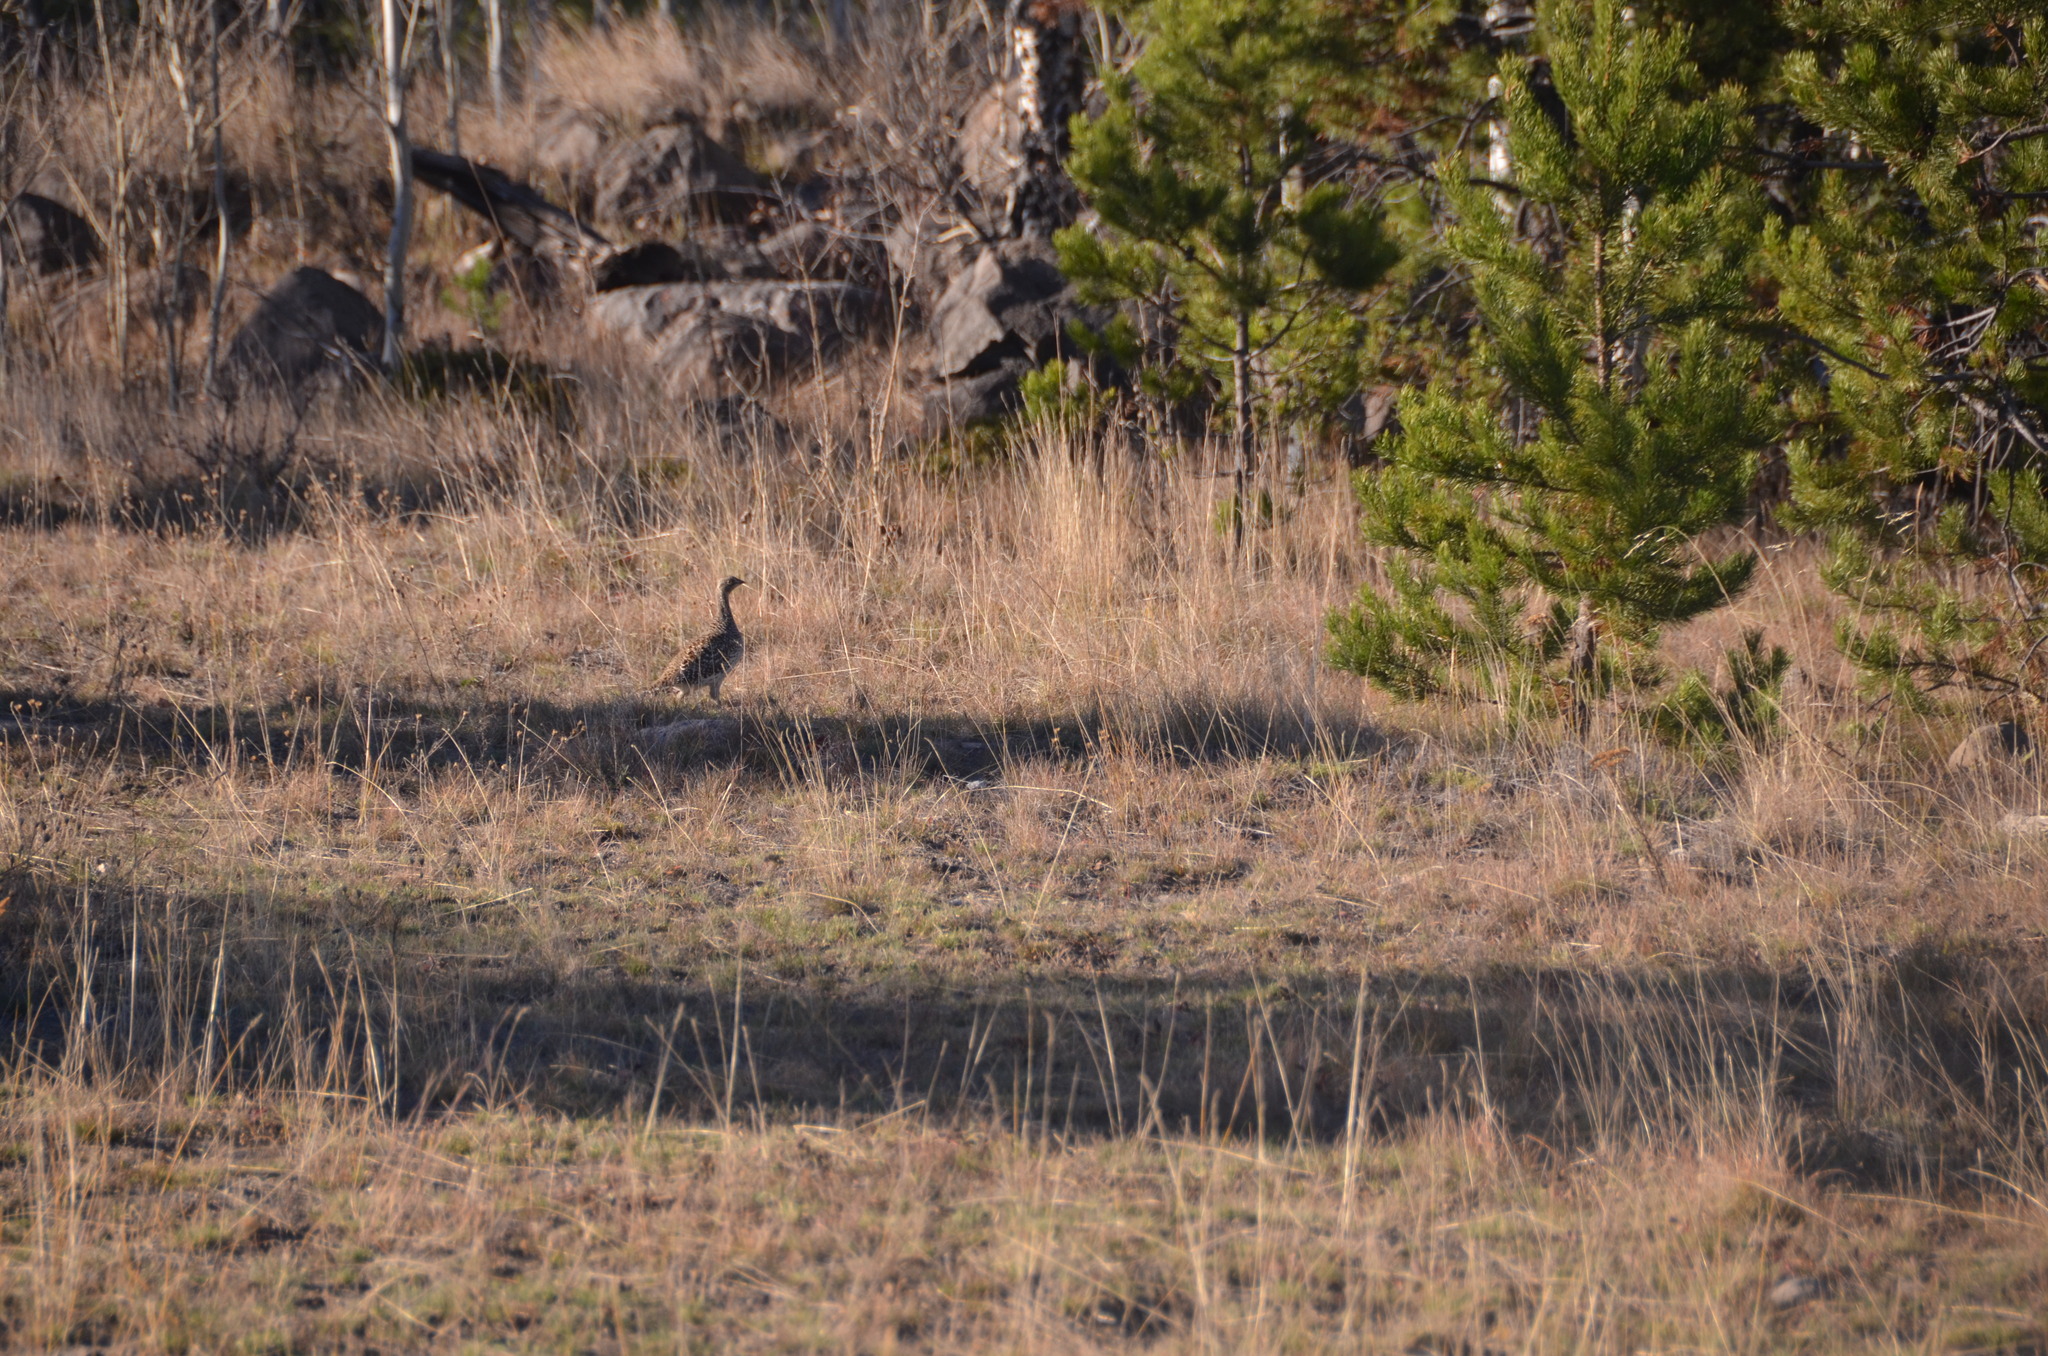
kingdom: Animalia
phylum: Chordata
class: Aves
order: Galliformes
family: Phasianidae
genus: Tympanuchus
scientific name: Tympanuchus phasianellus
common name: Sharp-tailed grouse
